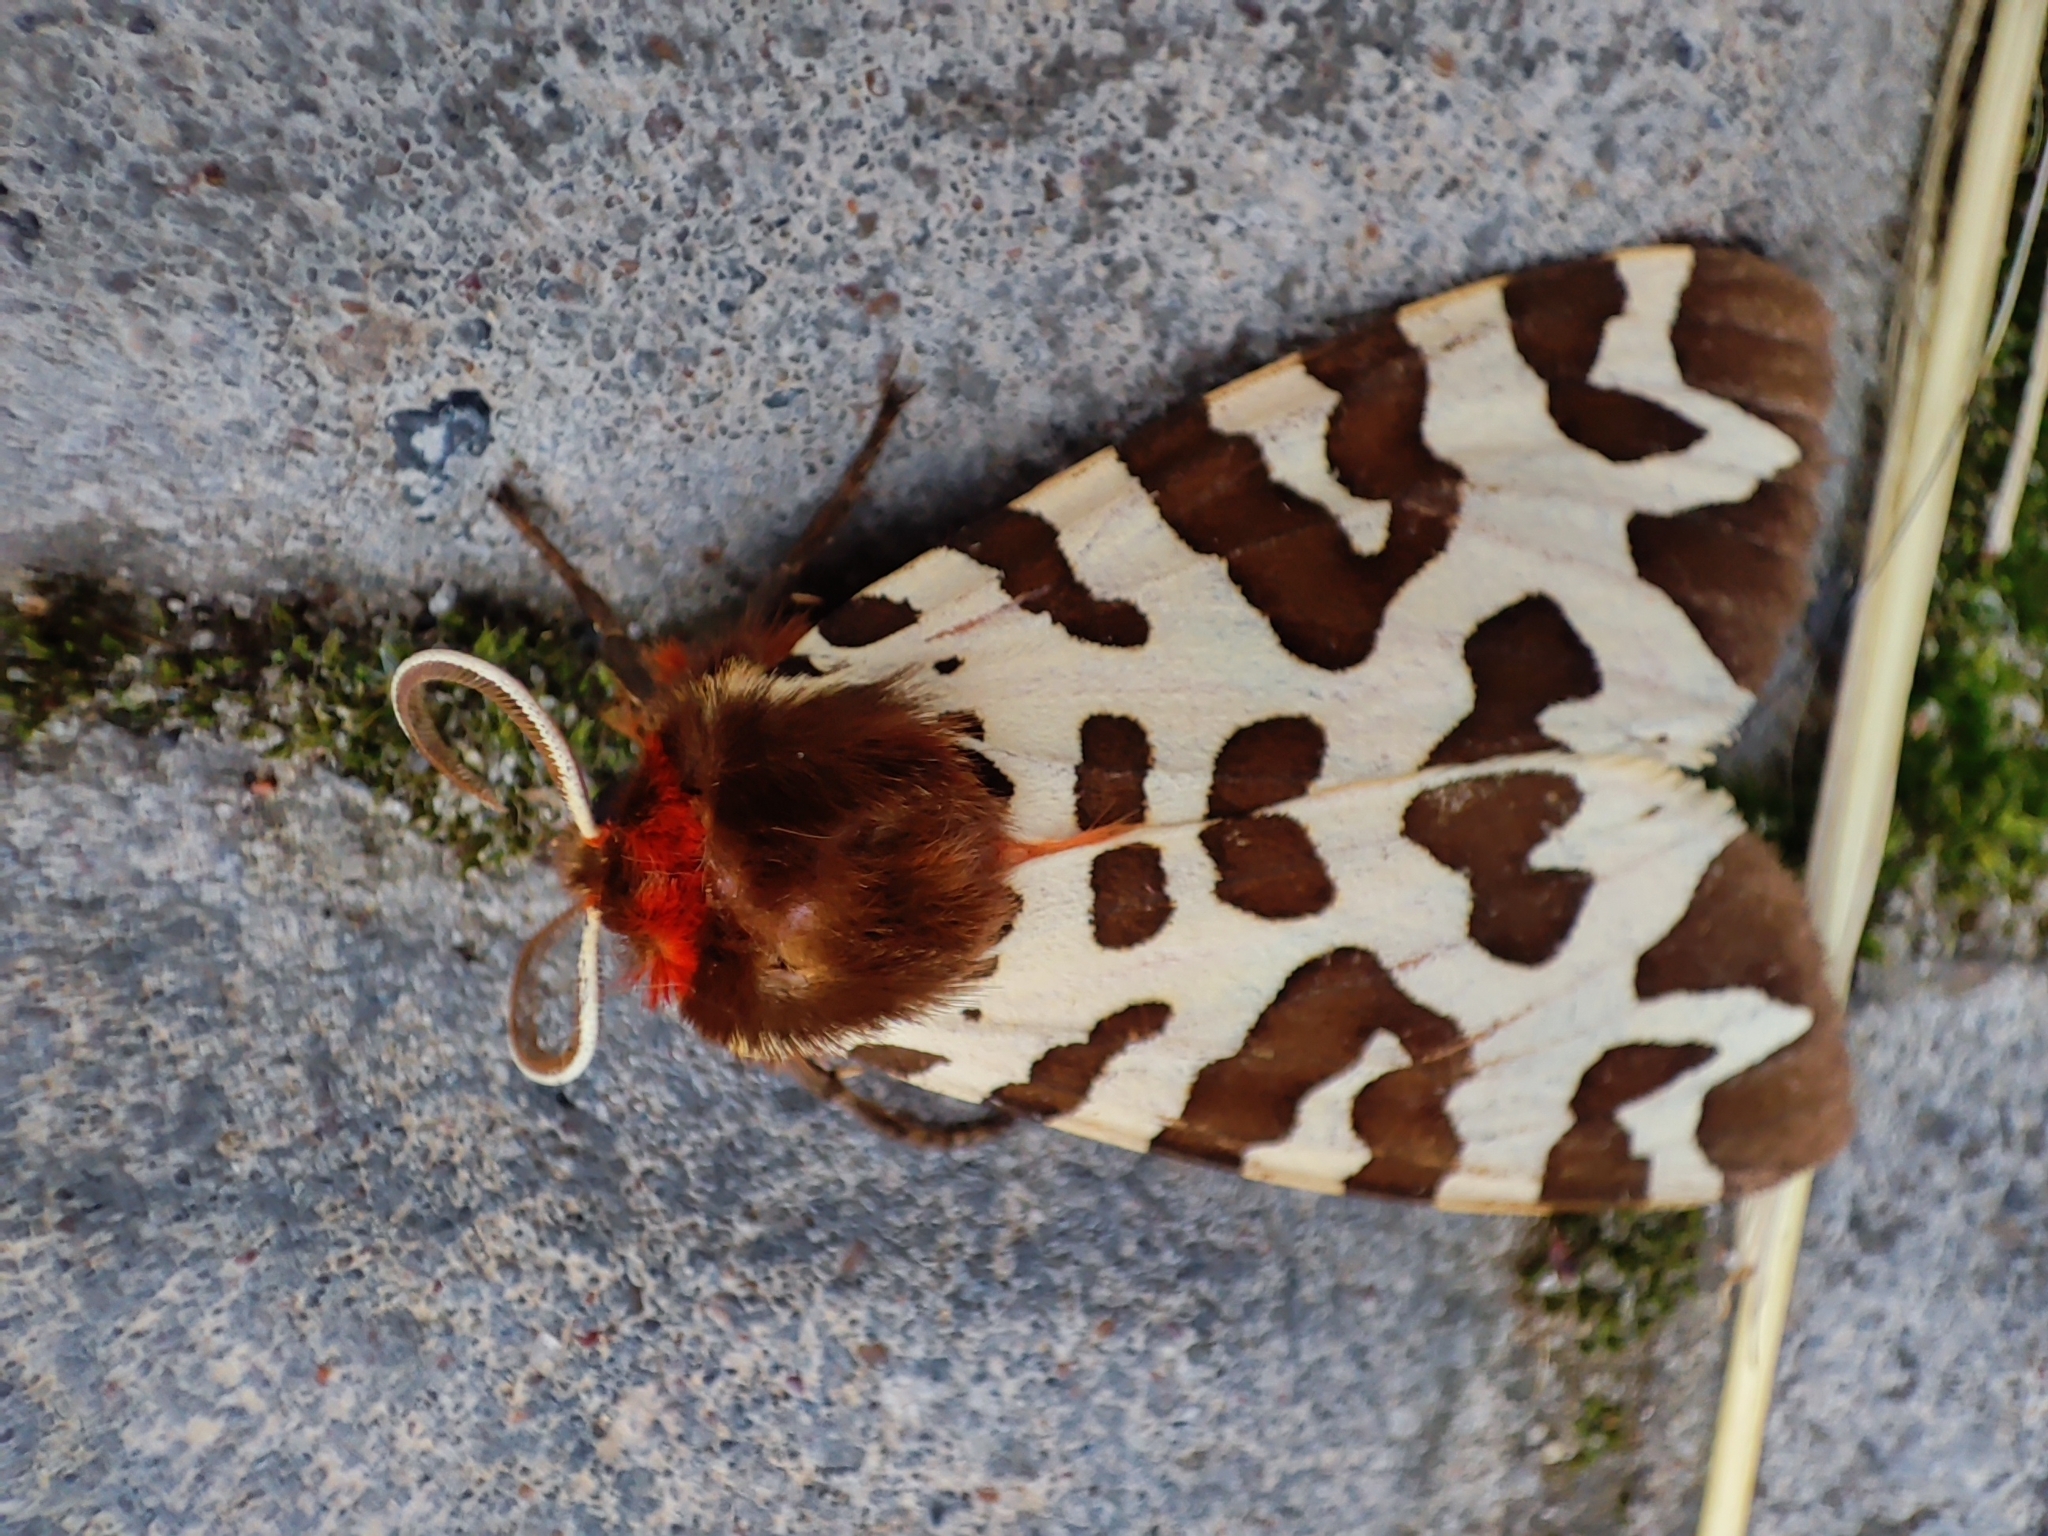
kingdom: Animalia
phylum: Arthropoda
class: Insecta
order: Lepidoptera
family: Erebidae
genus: Arctia
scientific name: Arctia caja
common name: Garden tiger
